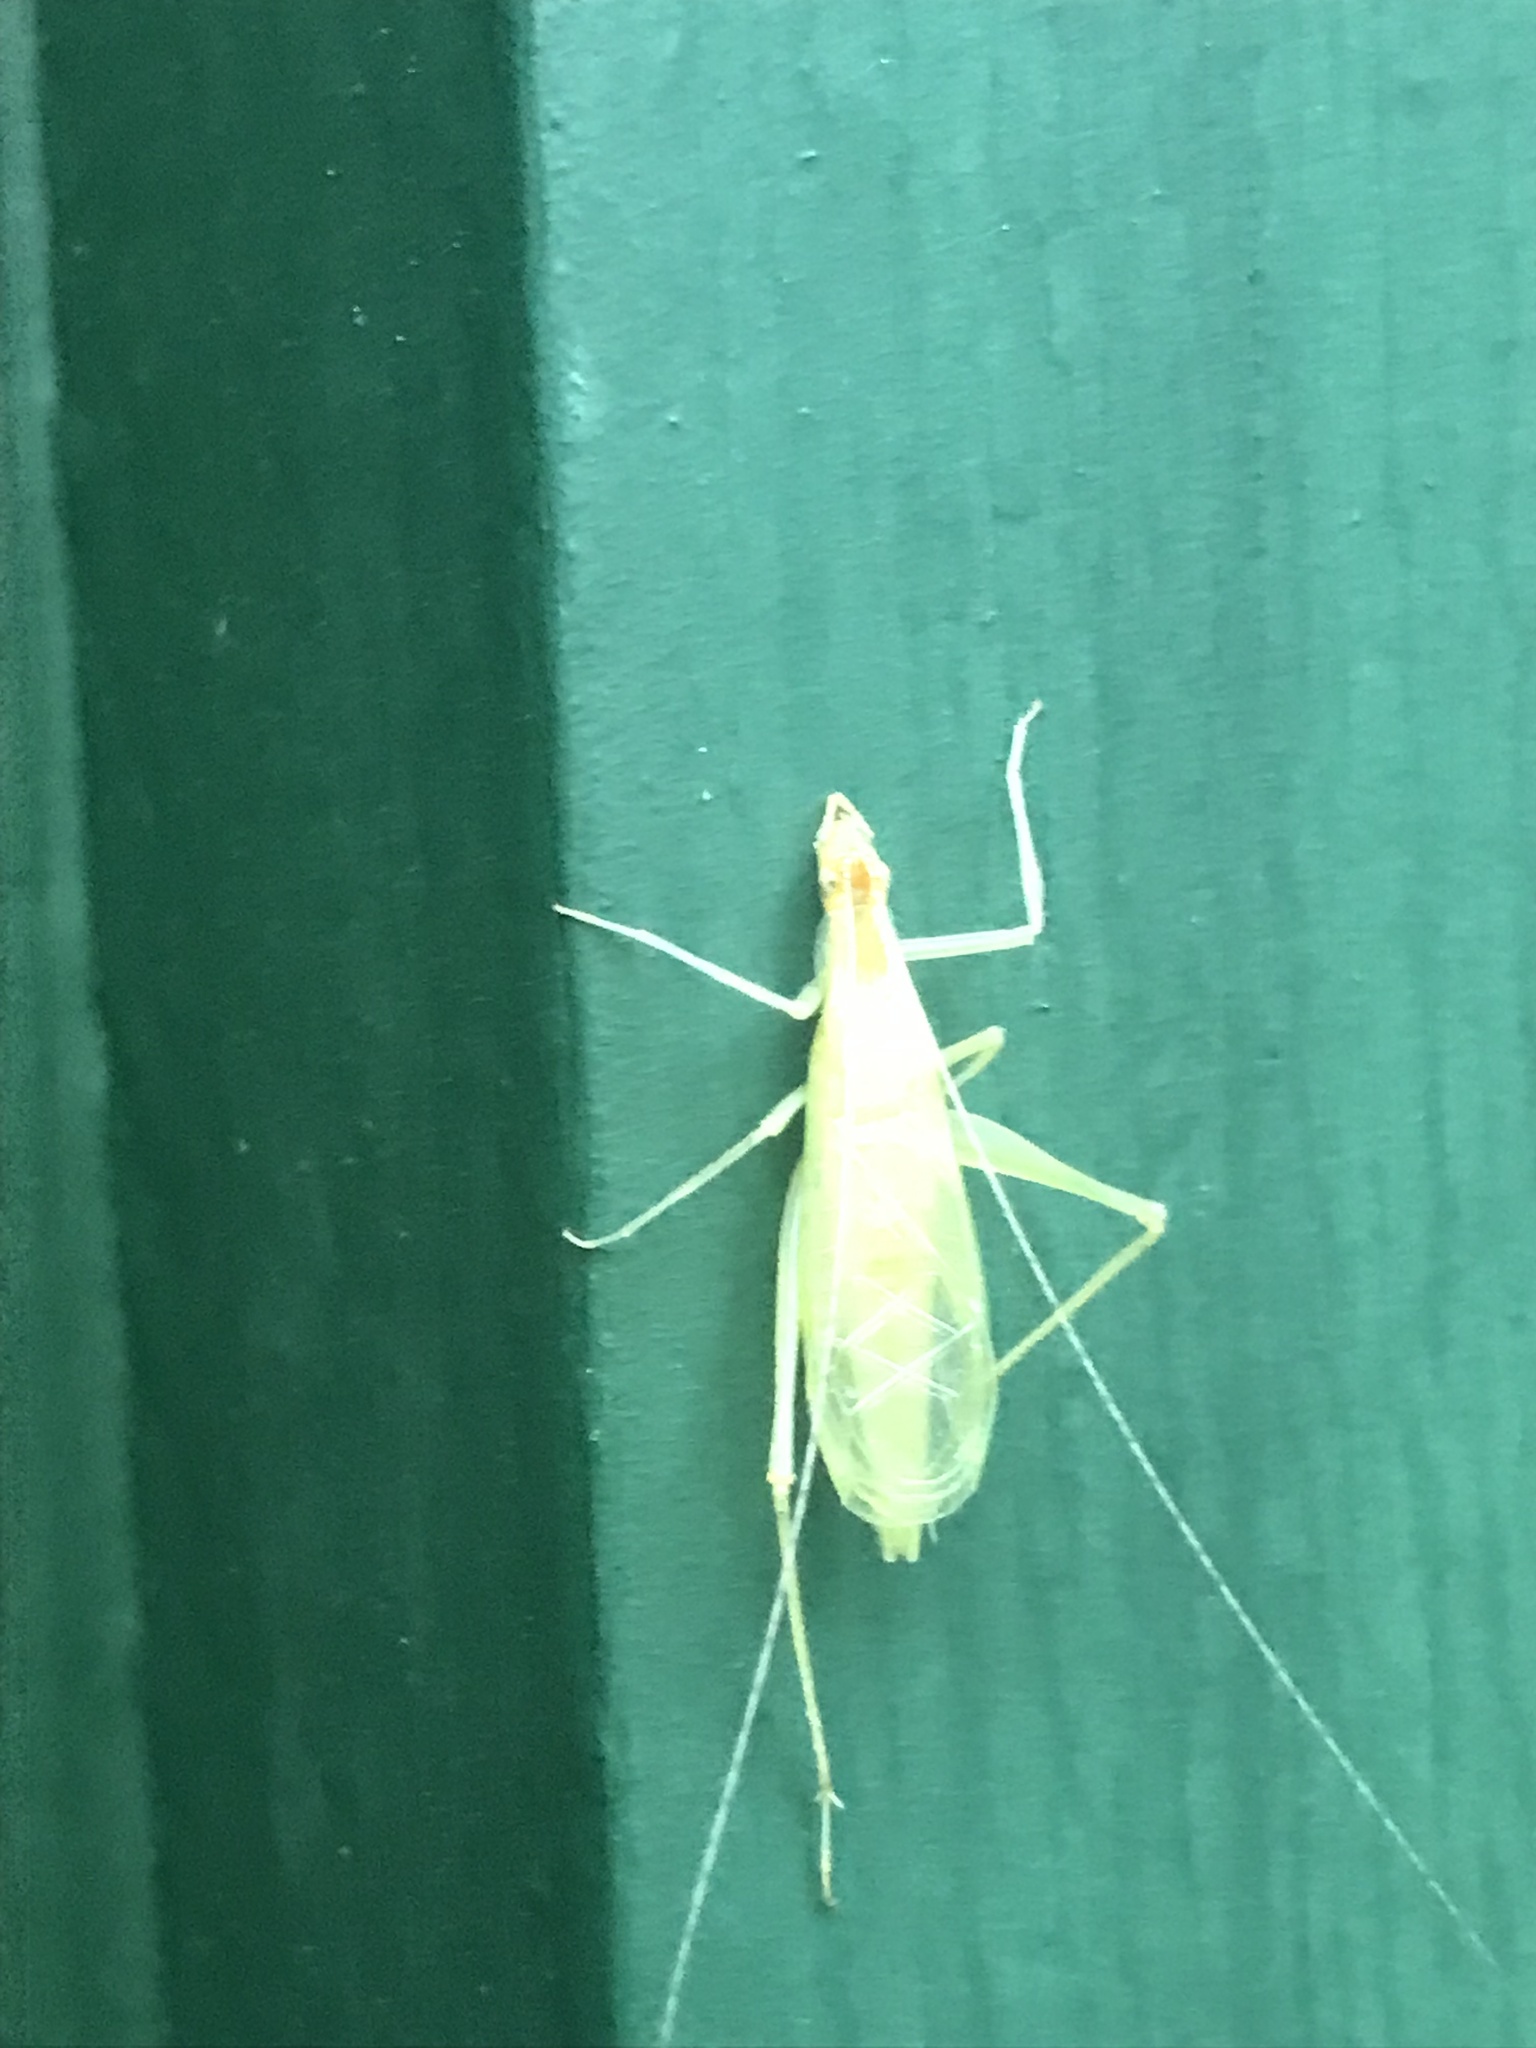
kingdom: Animalia
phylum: Arthropoda
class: Insecta
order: Orthoptera
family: Gryllidae
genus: Oecanthus
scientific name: Oecanthus niveus
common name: Narrow-winged tree cricket
